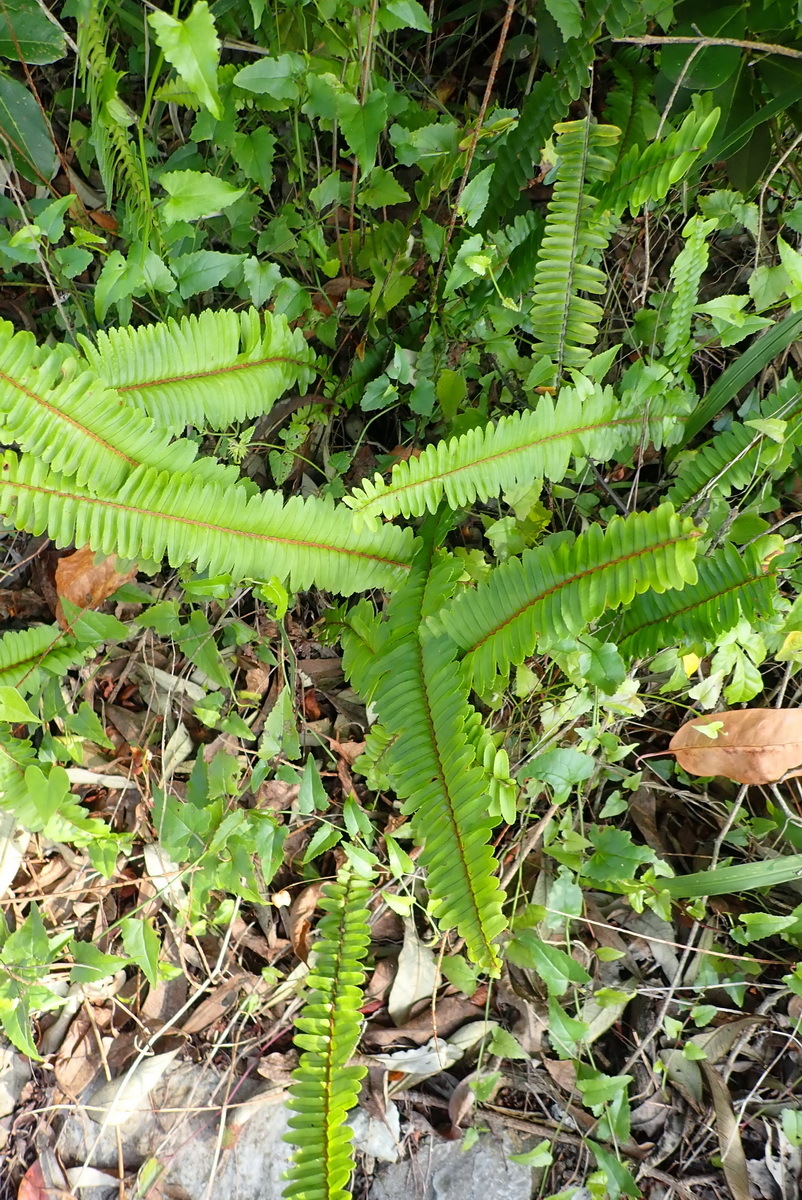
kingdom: Plantae
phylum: Tracheophyta
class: Polypodiopsida
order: Polypodiales
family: Nephrolepidaceae
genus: Nephrolepis
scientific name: Nephrolepis cordifolia
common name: Narrow swordfern
